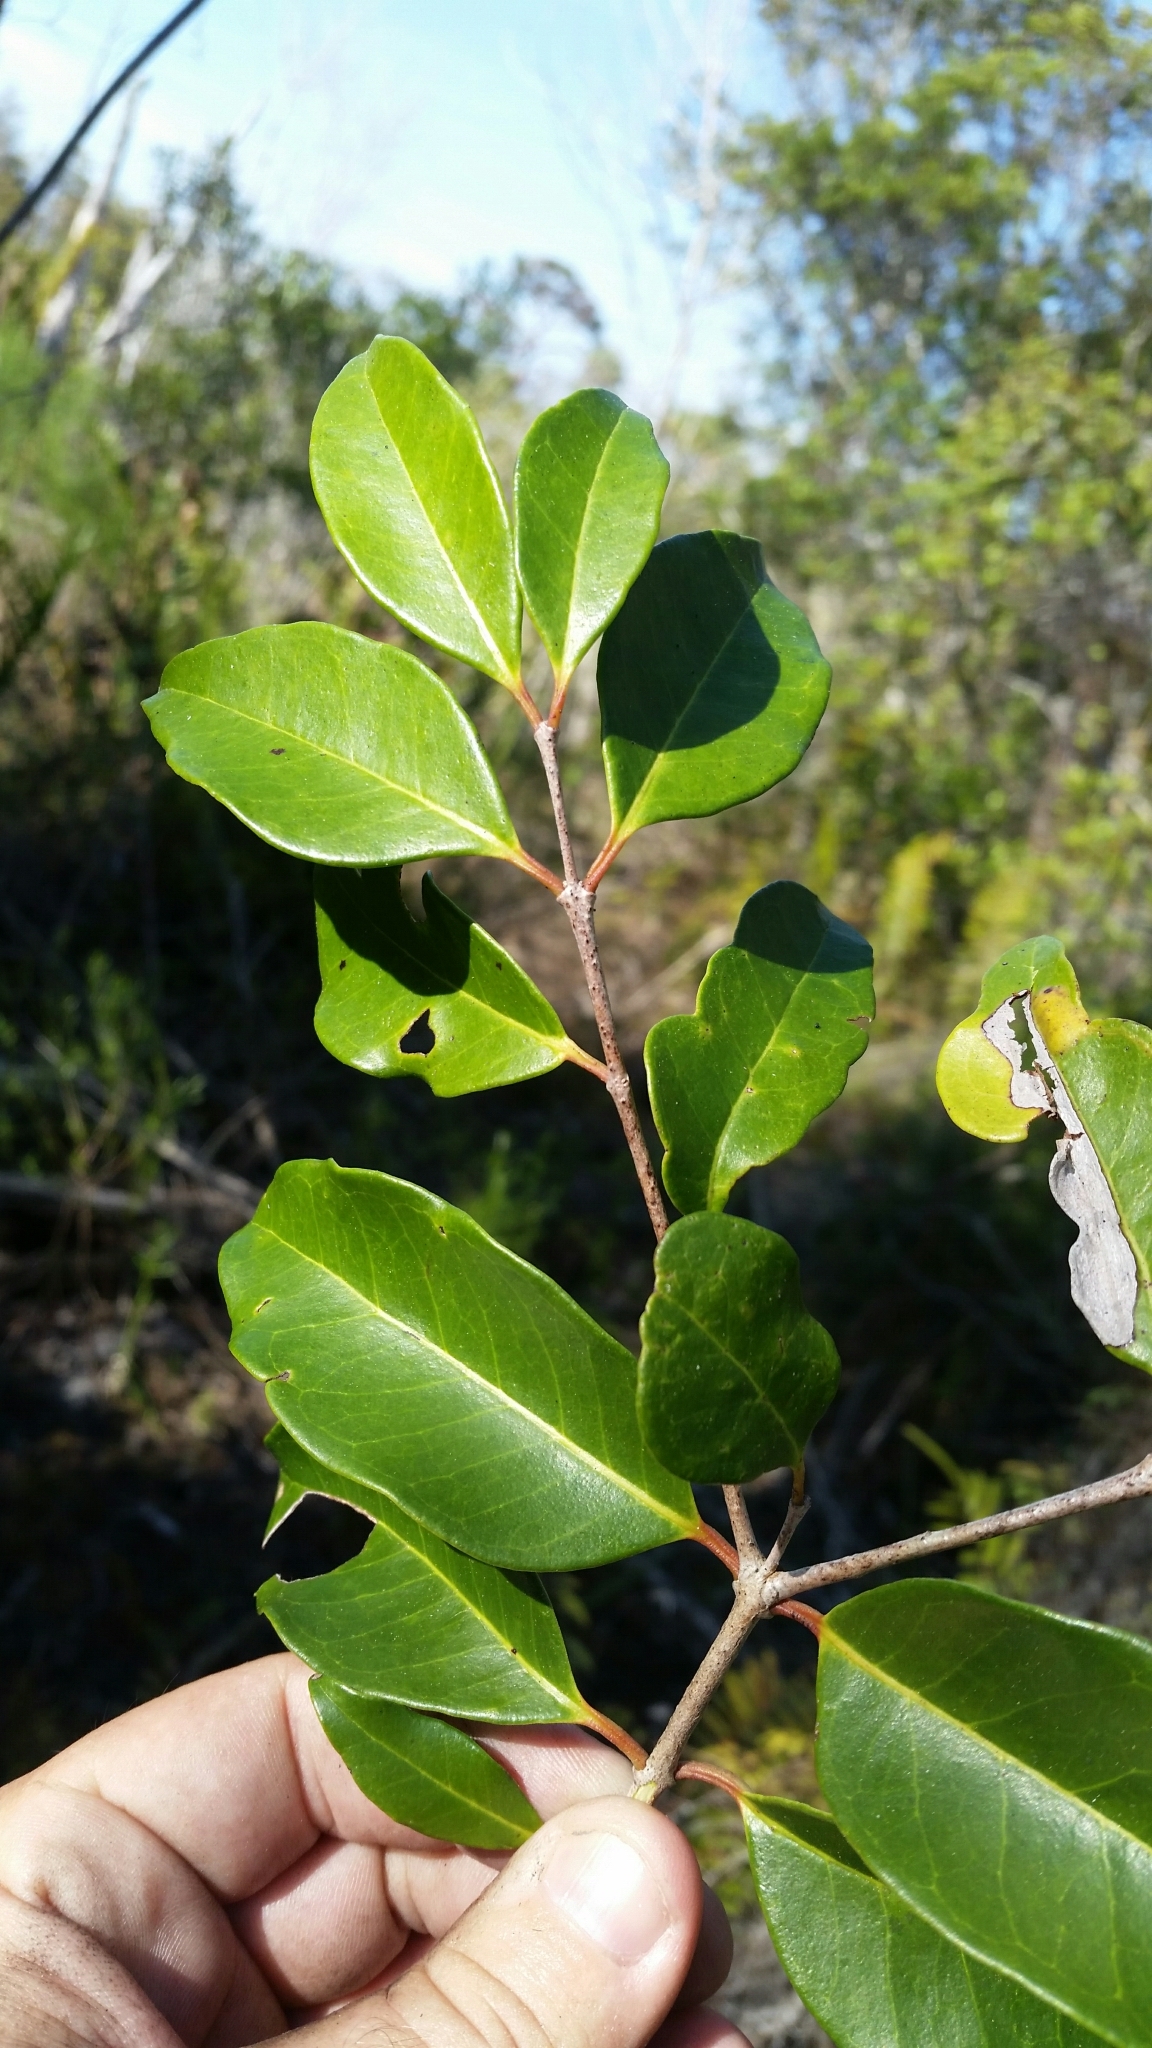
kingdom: Plantae
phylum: Tracheophyta
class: Magnoliopsida
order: Myrtales
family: Myrtaceae
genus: Eugenia
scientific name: Eugenia axillaris
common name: Choaky berry
